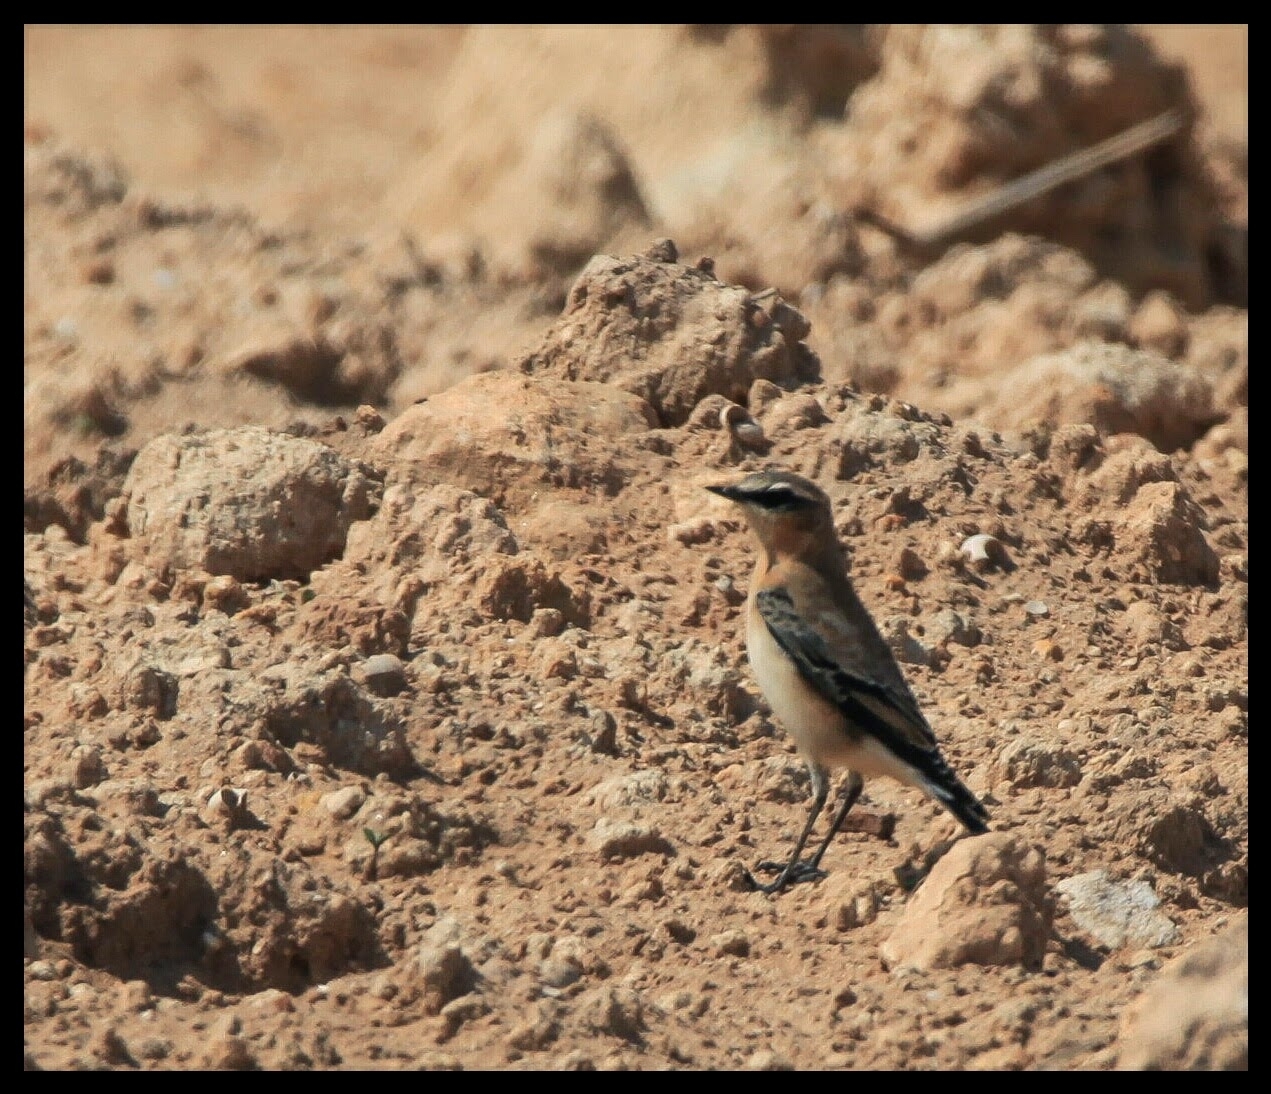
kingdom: Animalia
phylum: Chordata
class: Aves
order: Passeriformes
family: Muscicapidae
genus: Oenanthe
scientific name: Oenanthe oenanthe
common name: Northern wheatear
